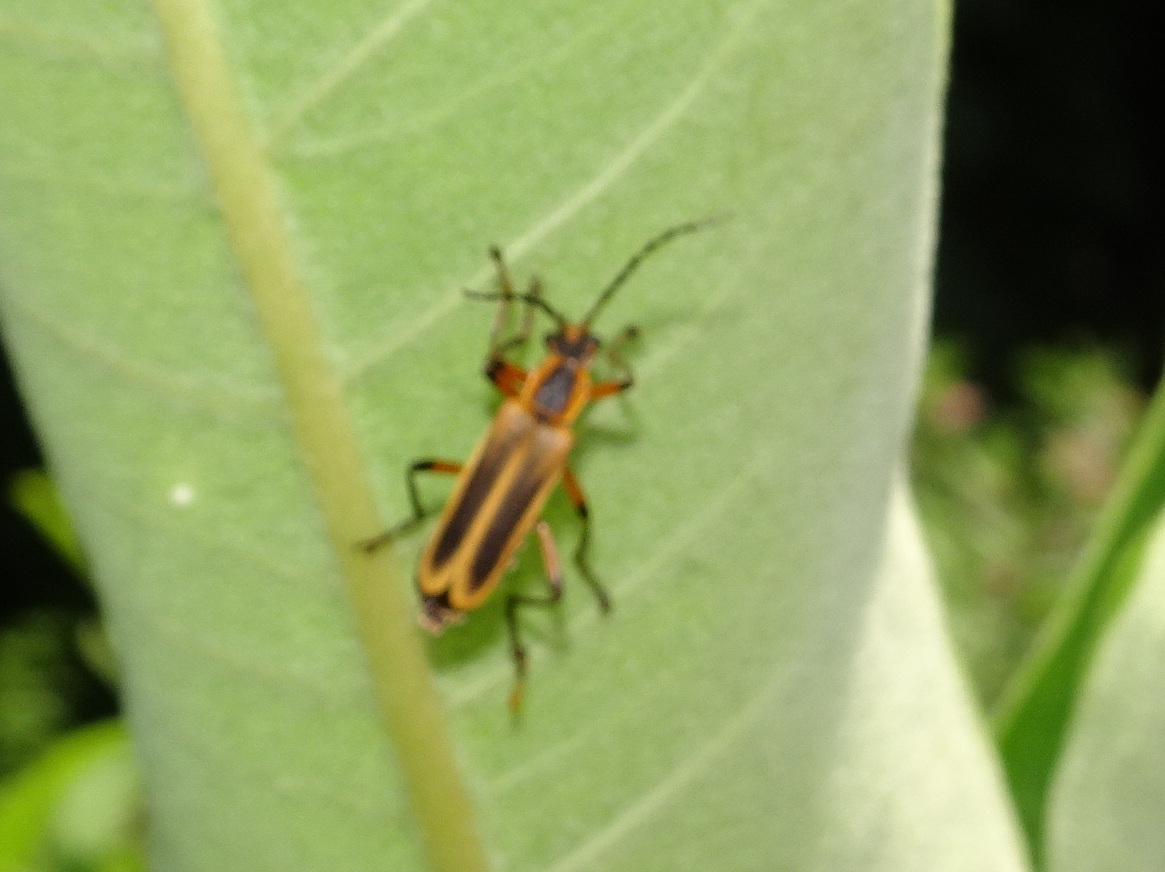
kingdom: Animalia
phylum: Arthropoda
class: Insecta
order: Coleoptera
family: Cantharidae
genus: Chauliognathus
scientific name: Chauliognathus marginatus
